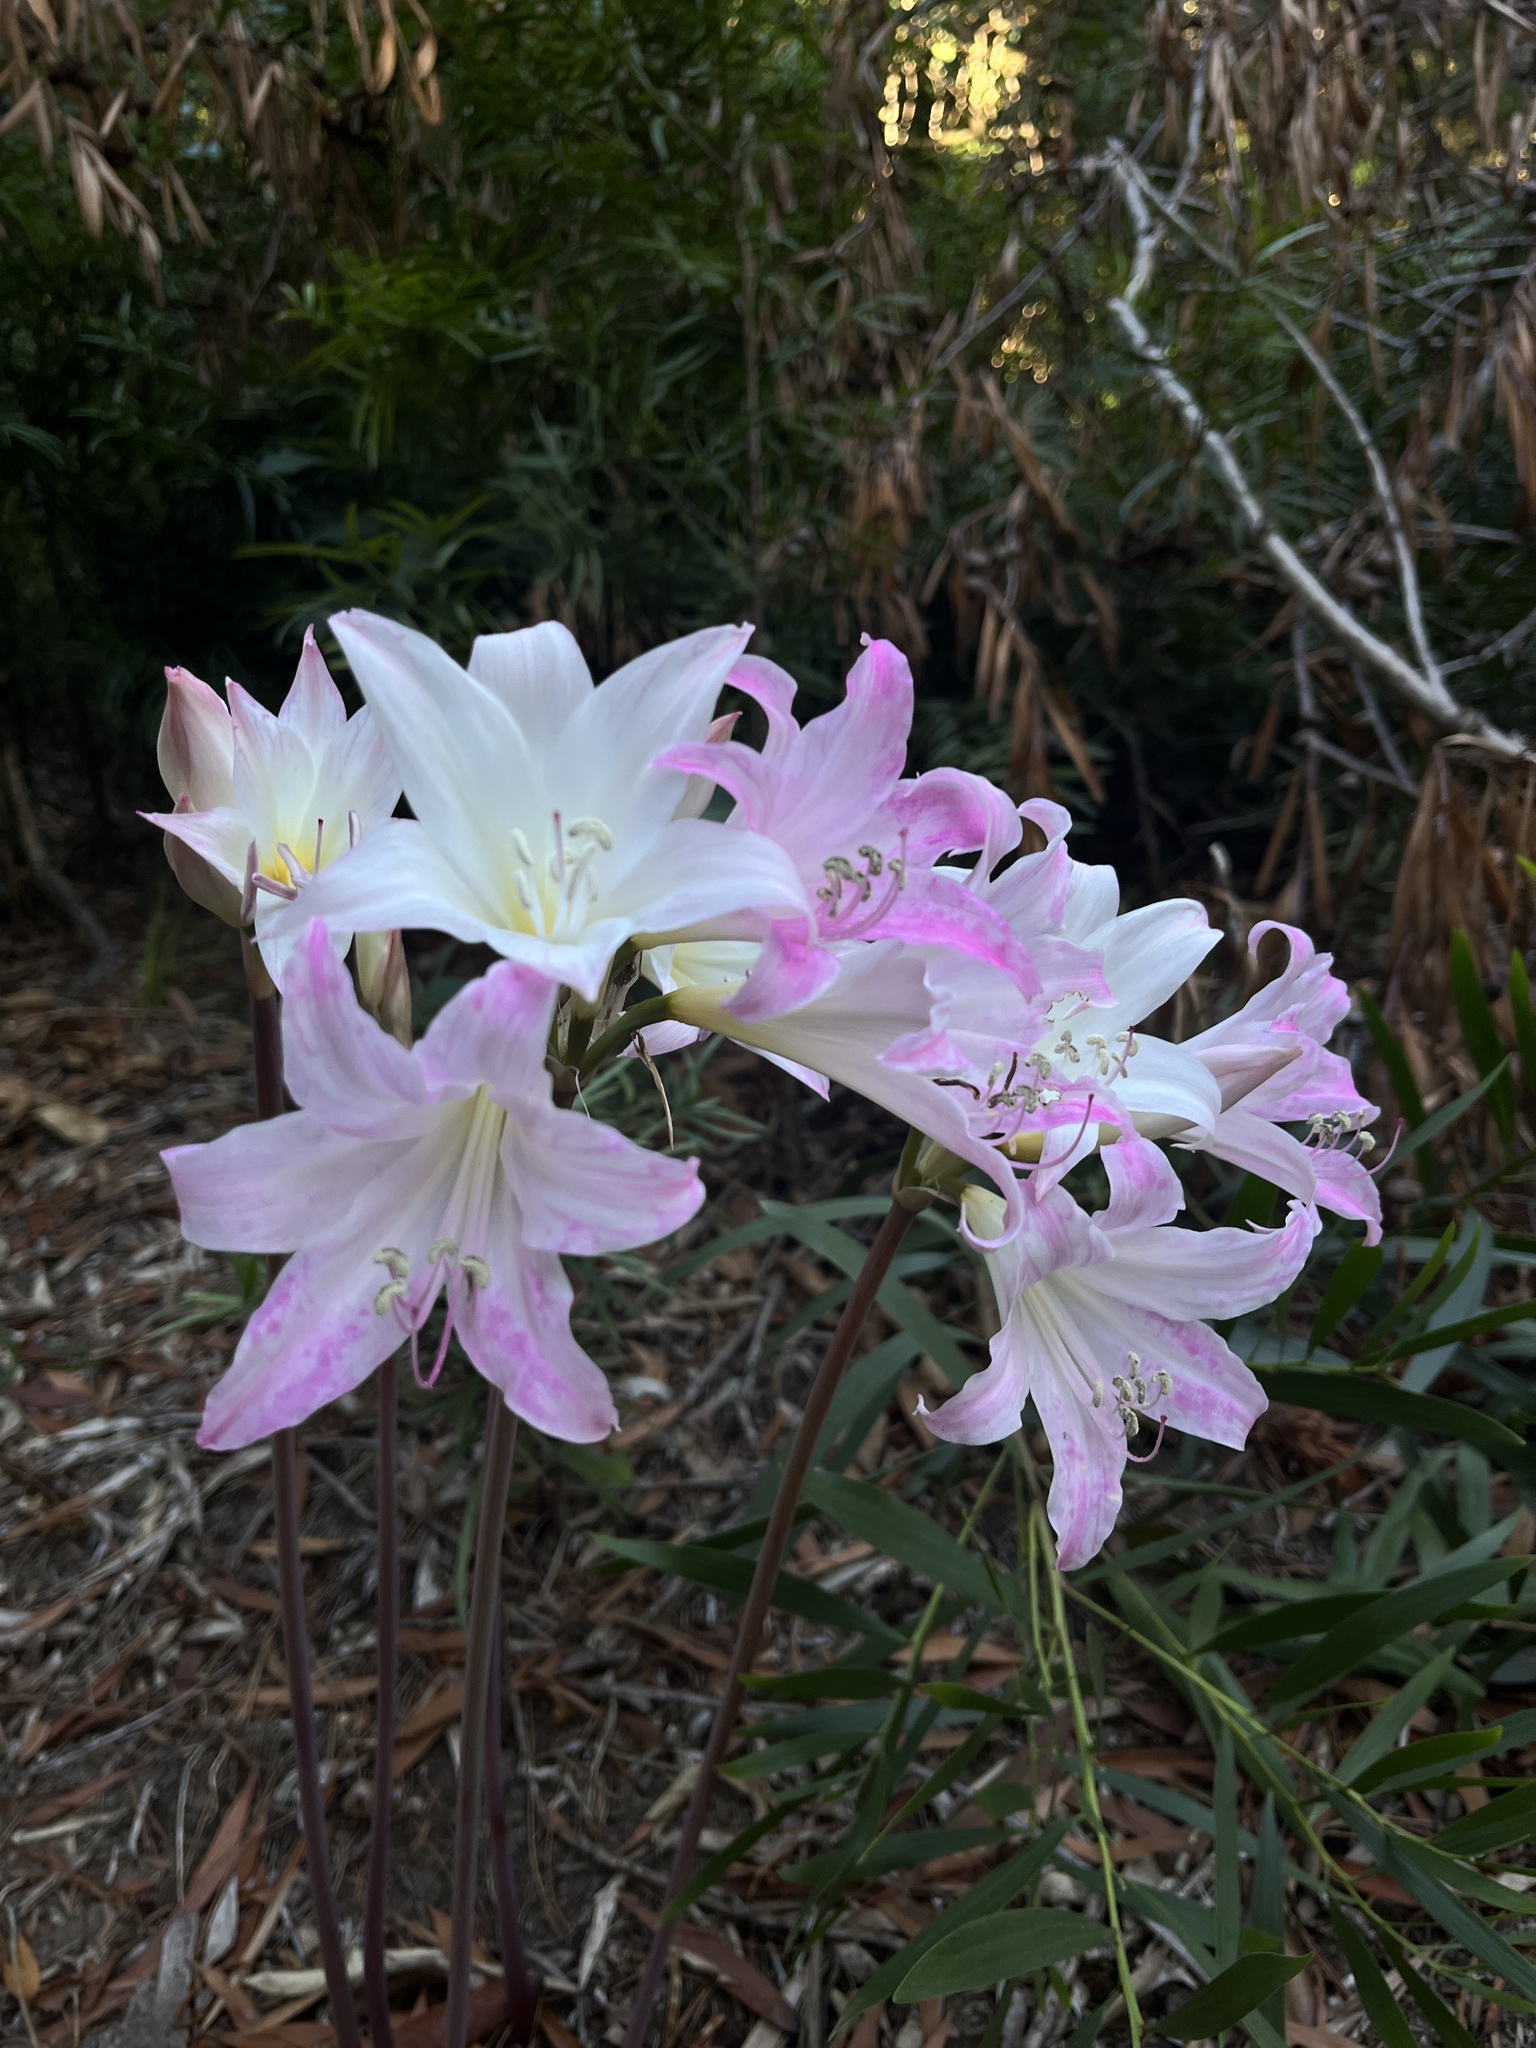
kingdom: Plantae
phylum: Tracheophyta
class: Liliopsida
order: Asparagales
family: Amaryllidaceae
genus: Amaryllis
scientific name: Amaryllis belladonna
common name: Jersey lily
